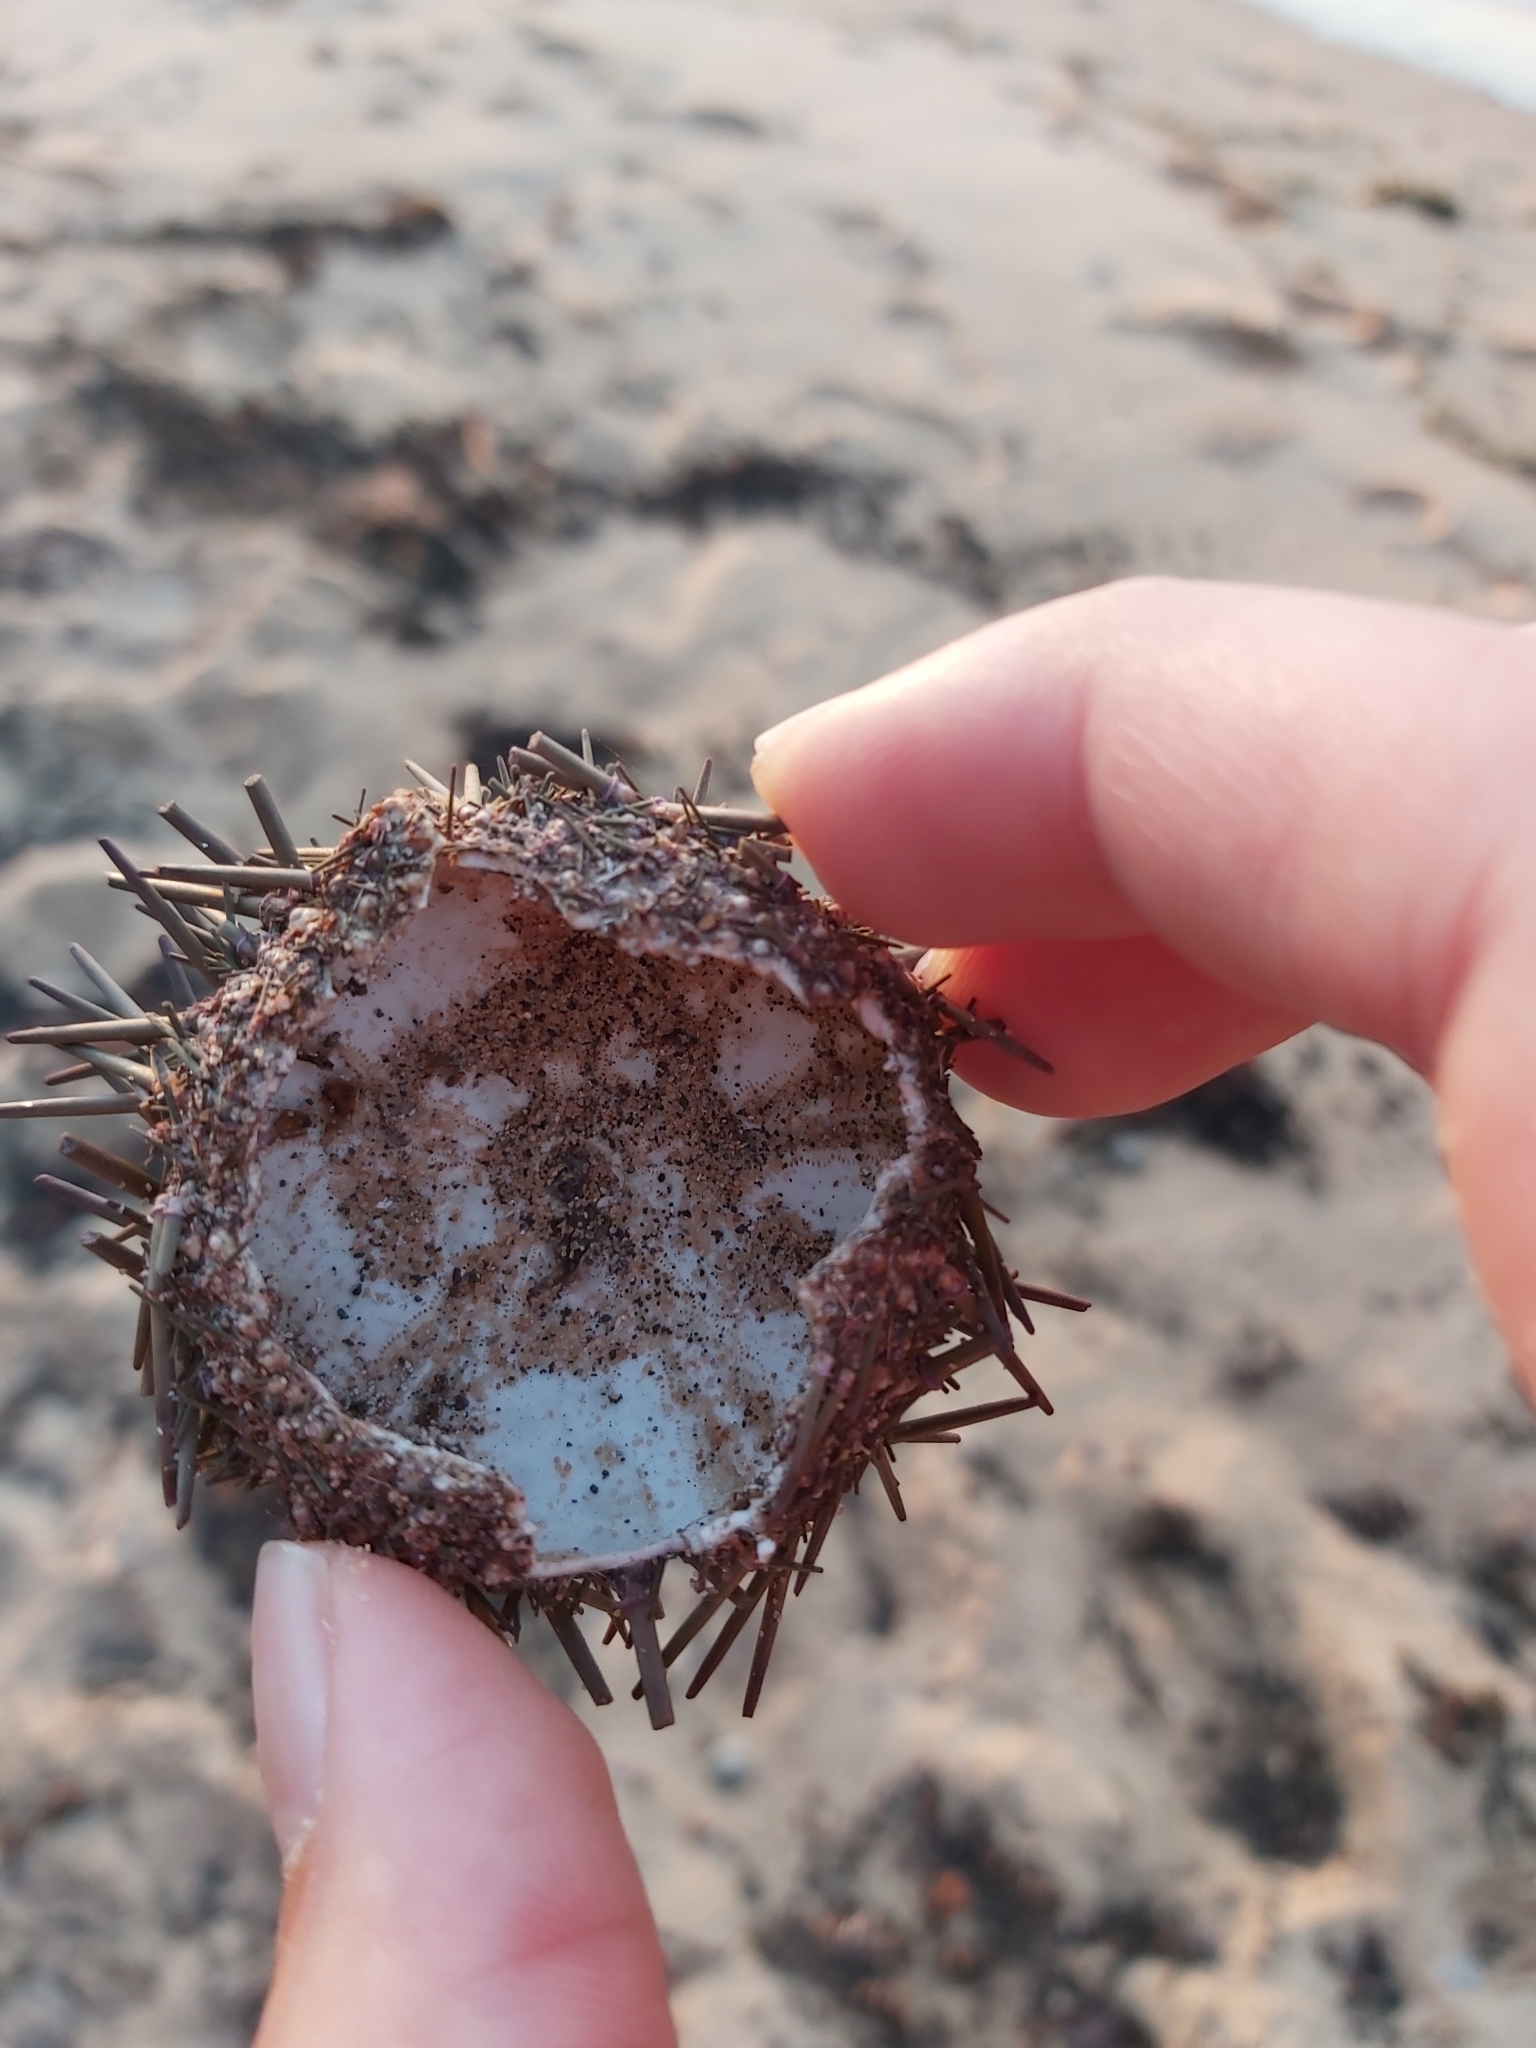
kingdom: Animalia
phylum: Echinodermata
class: Echinoidea
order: Camarodonta
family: Echinometridae
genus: Heliocidaris
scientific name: Heliocidaris erythrogramma
